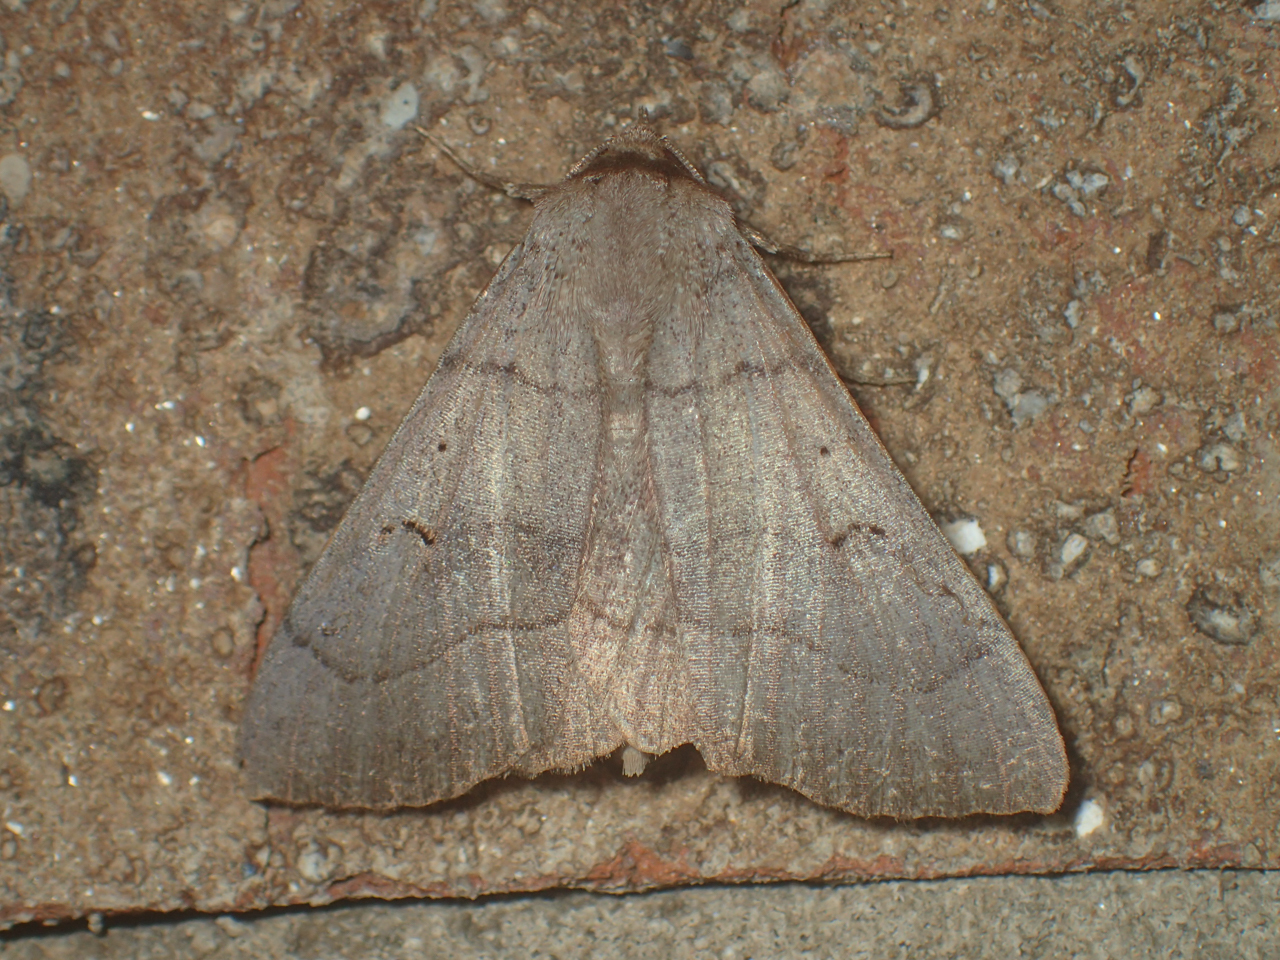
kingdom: Animalia
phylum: Arthropoda
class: Insecta
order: Lepidoptera
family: Erebidae
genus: Panopoda
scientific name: Panopoda carneicosta
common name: Brown panopoda moth
